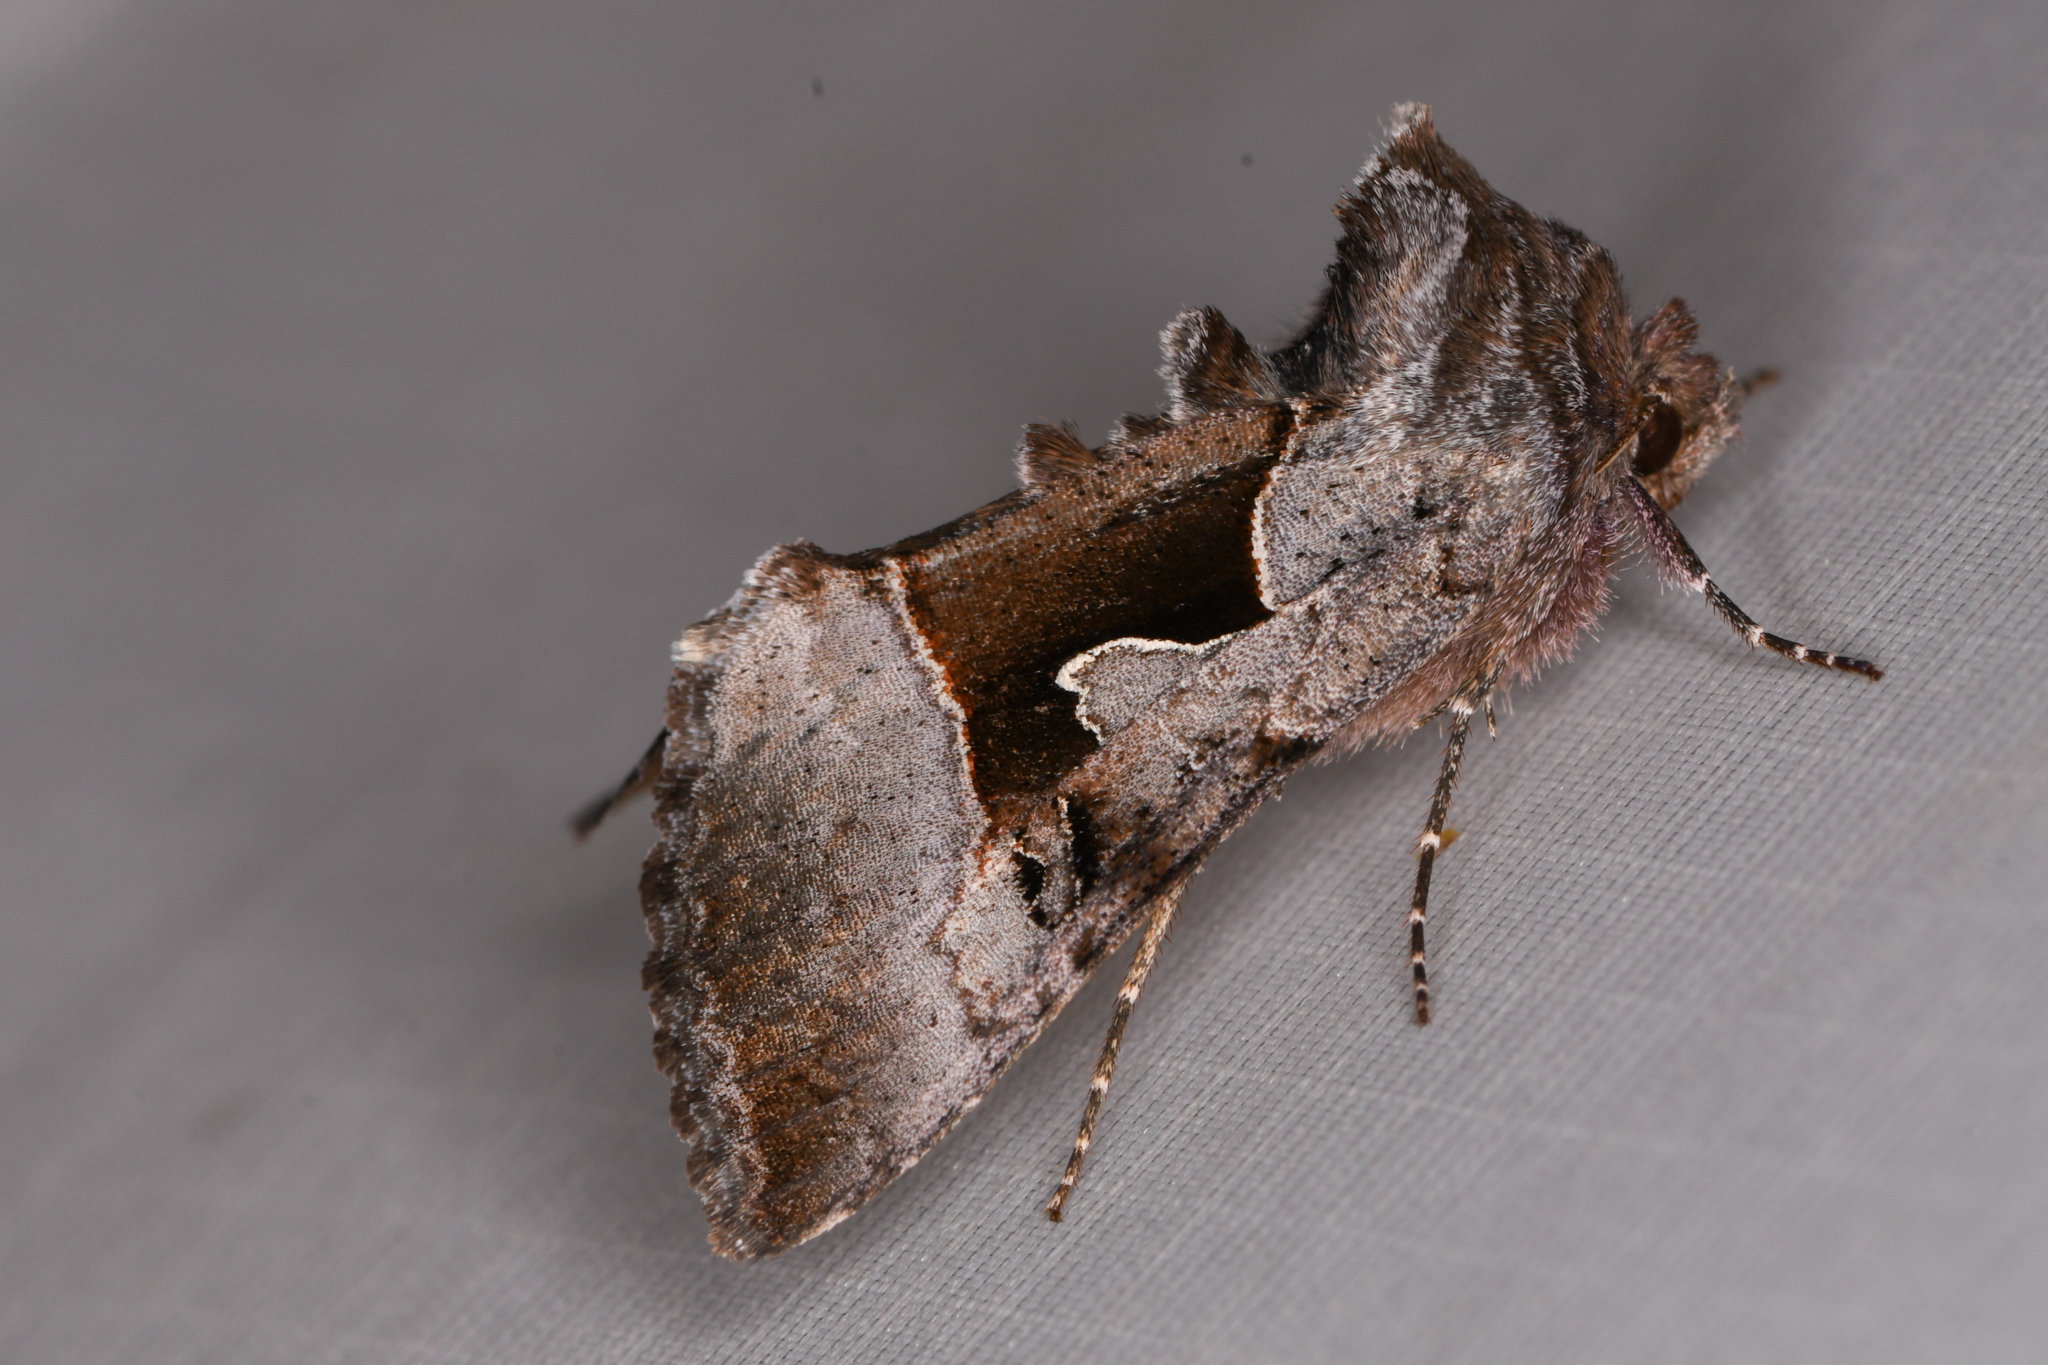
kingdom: Animalia
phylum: Arthropoda
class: Insecta
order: Lepidoptera
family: Noctuidae
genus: Syngrapha
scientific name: Syngrapha orophila
